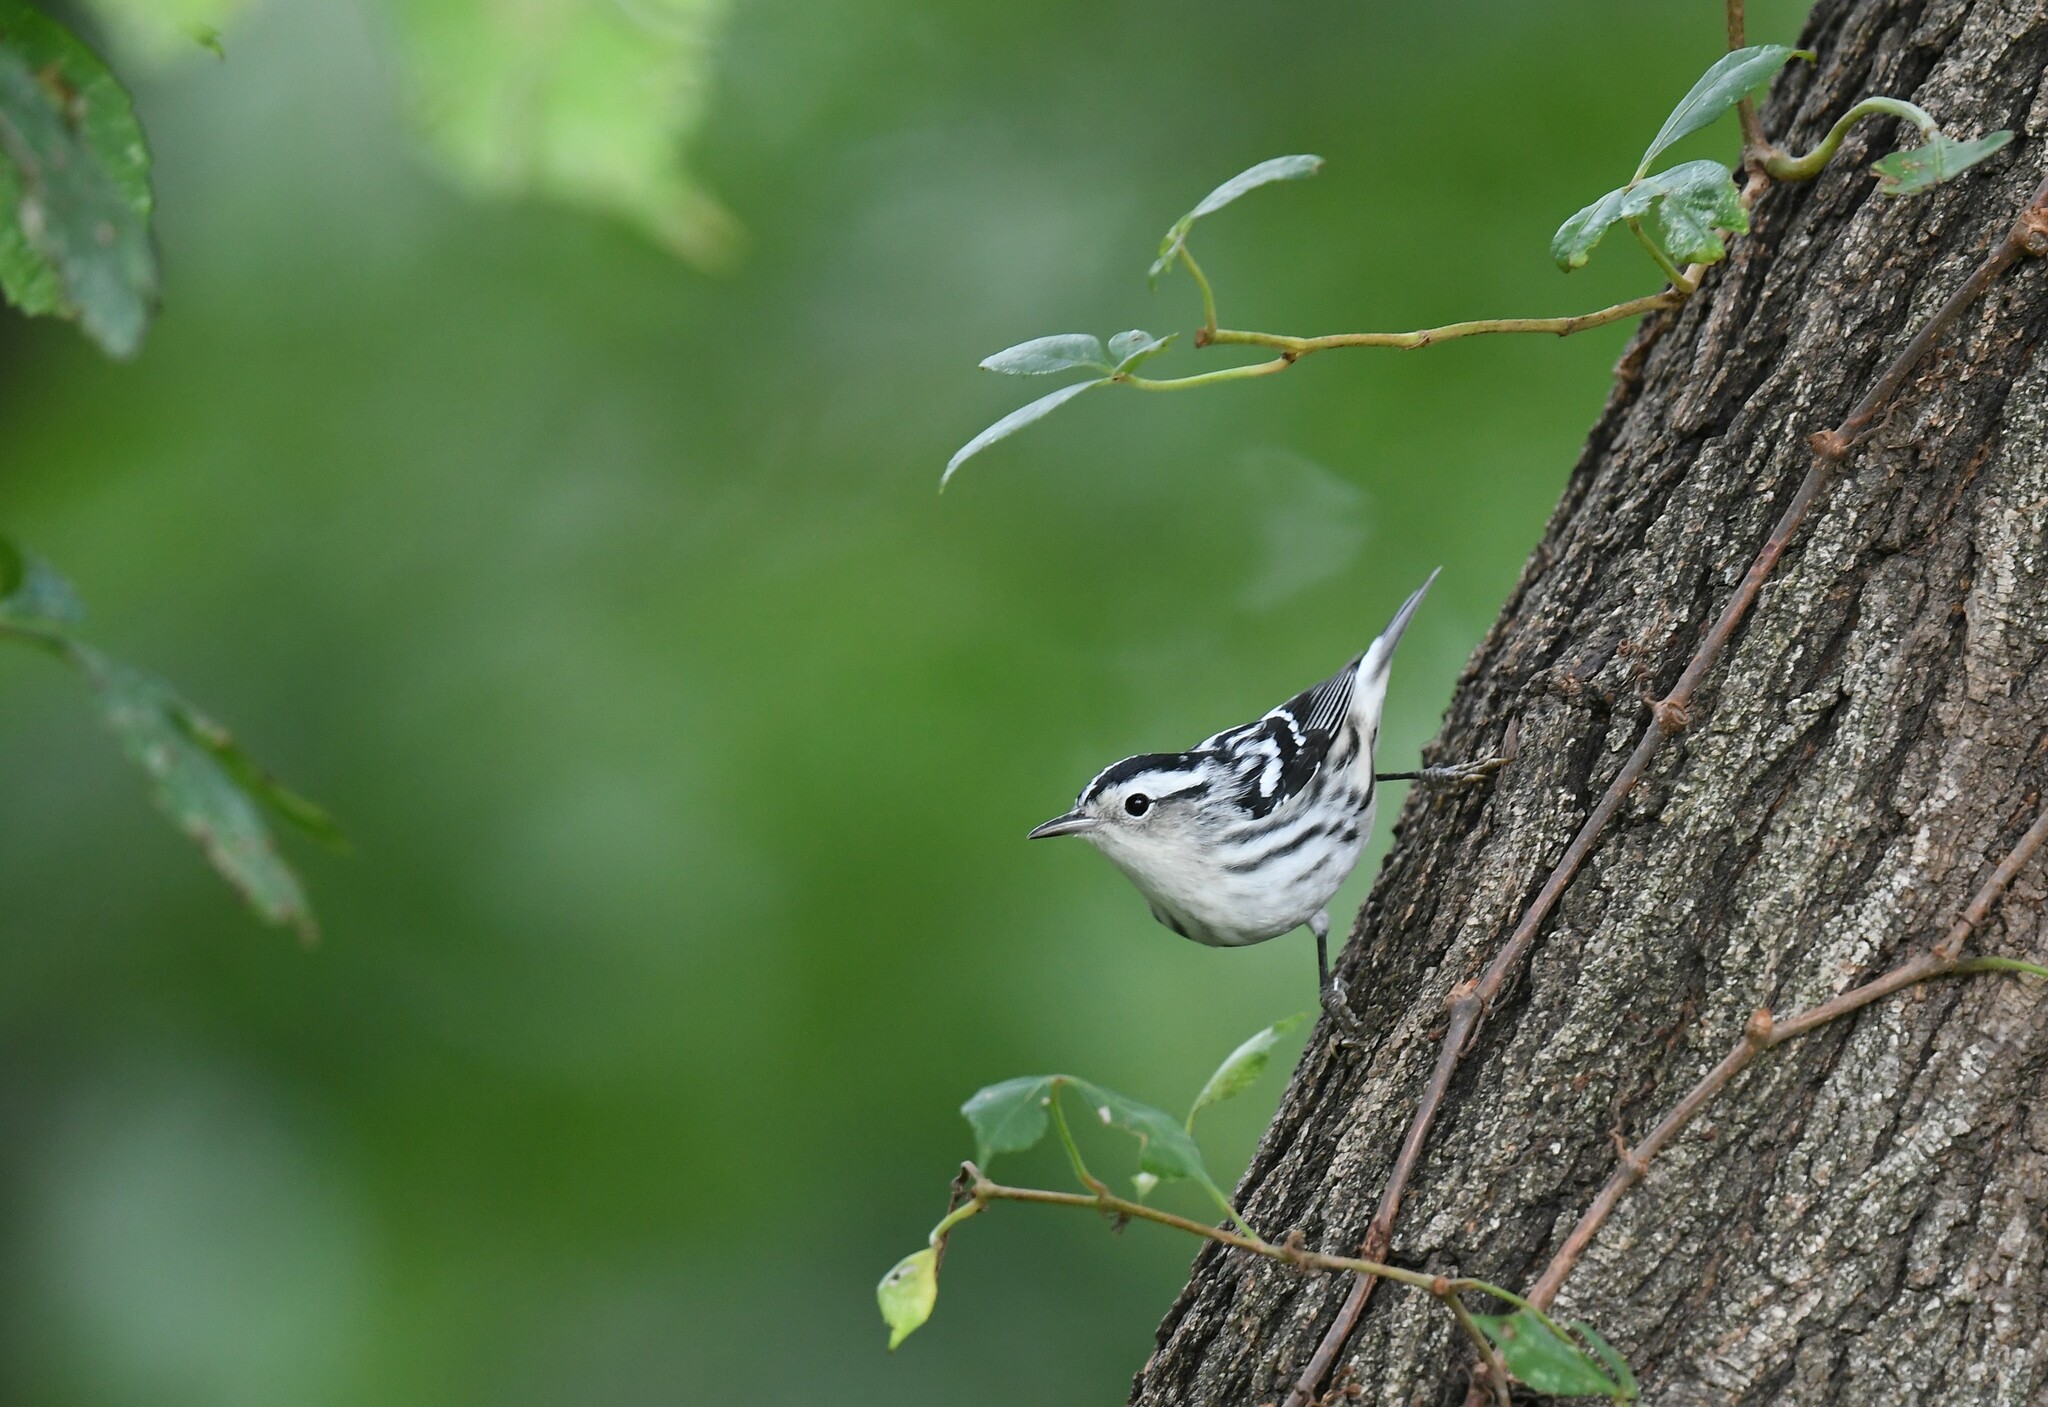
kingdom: Animalia
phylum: Chordata
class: Aves
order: Passeriformes
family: Parulidae
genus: Mniotilta
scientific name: Mniotilta varia
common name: Black-and-white warbler
